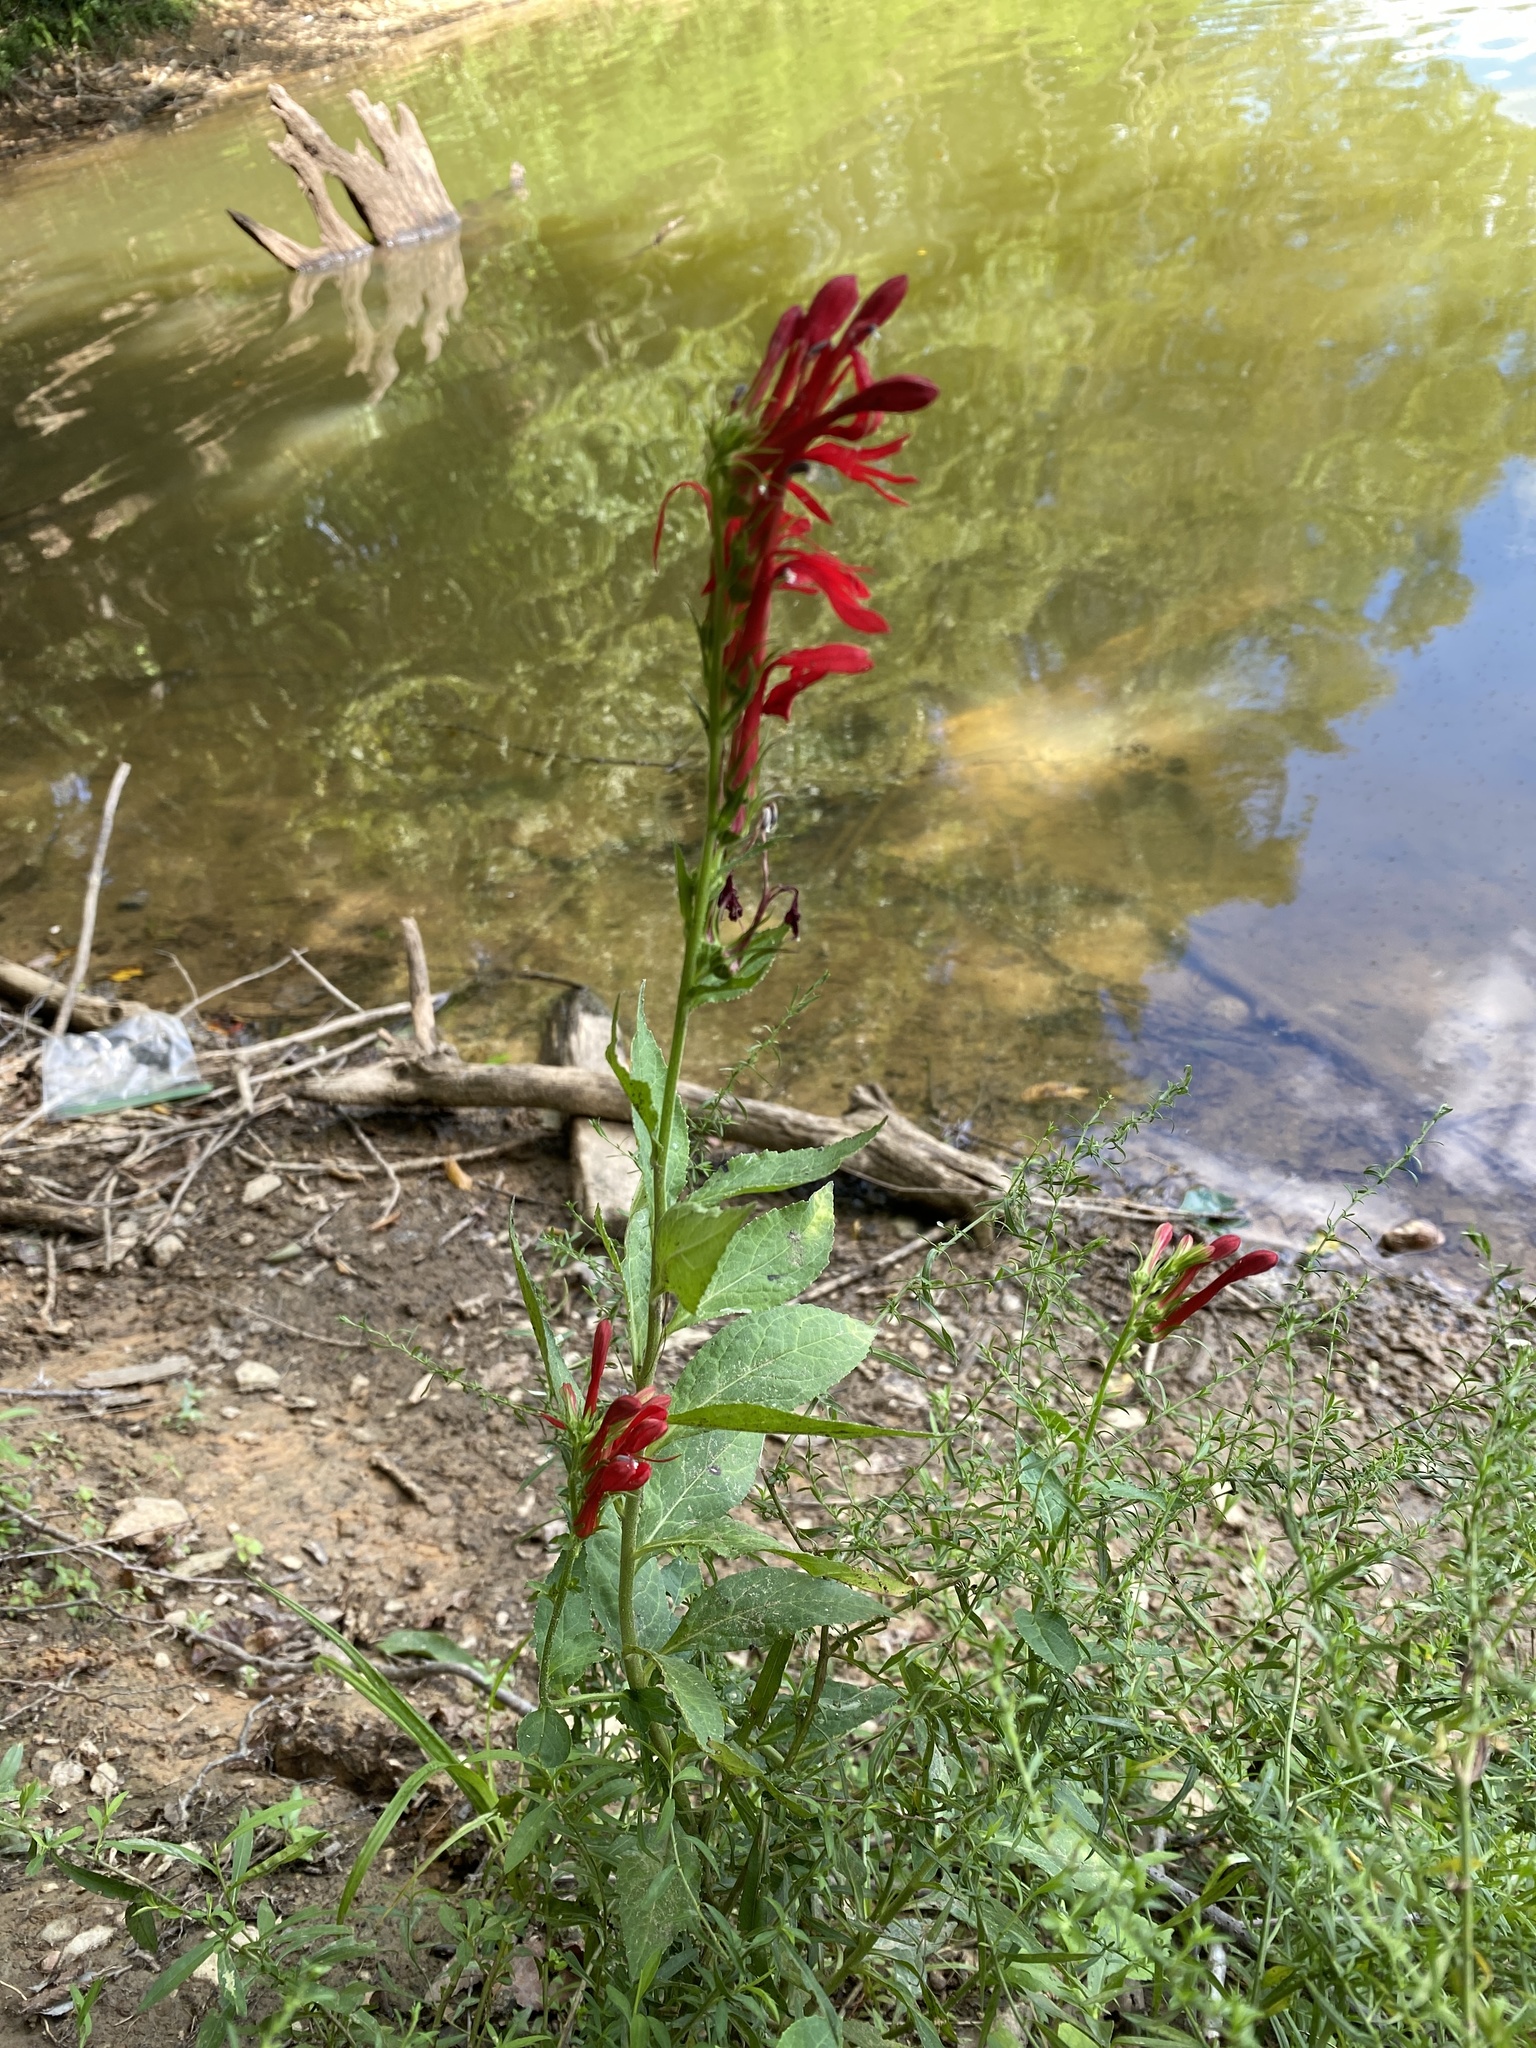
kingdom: Plantae
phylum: Tracheophyta
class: Magnoliopsida
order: Asterales
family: Campanulaceae
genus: Lobelia
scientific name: Lobelia cardinalis
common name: Cardinal flower
